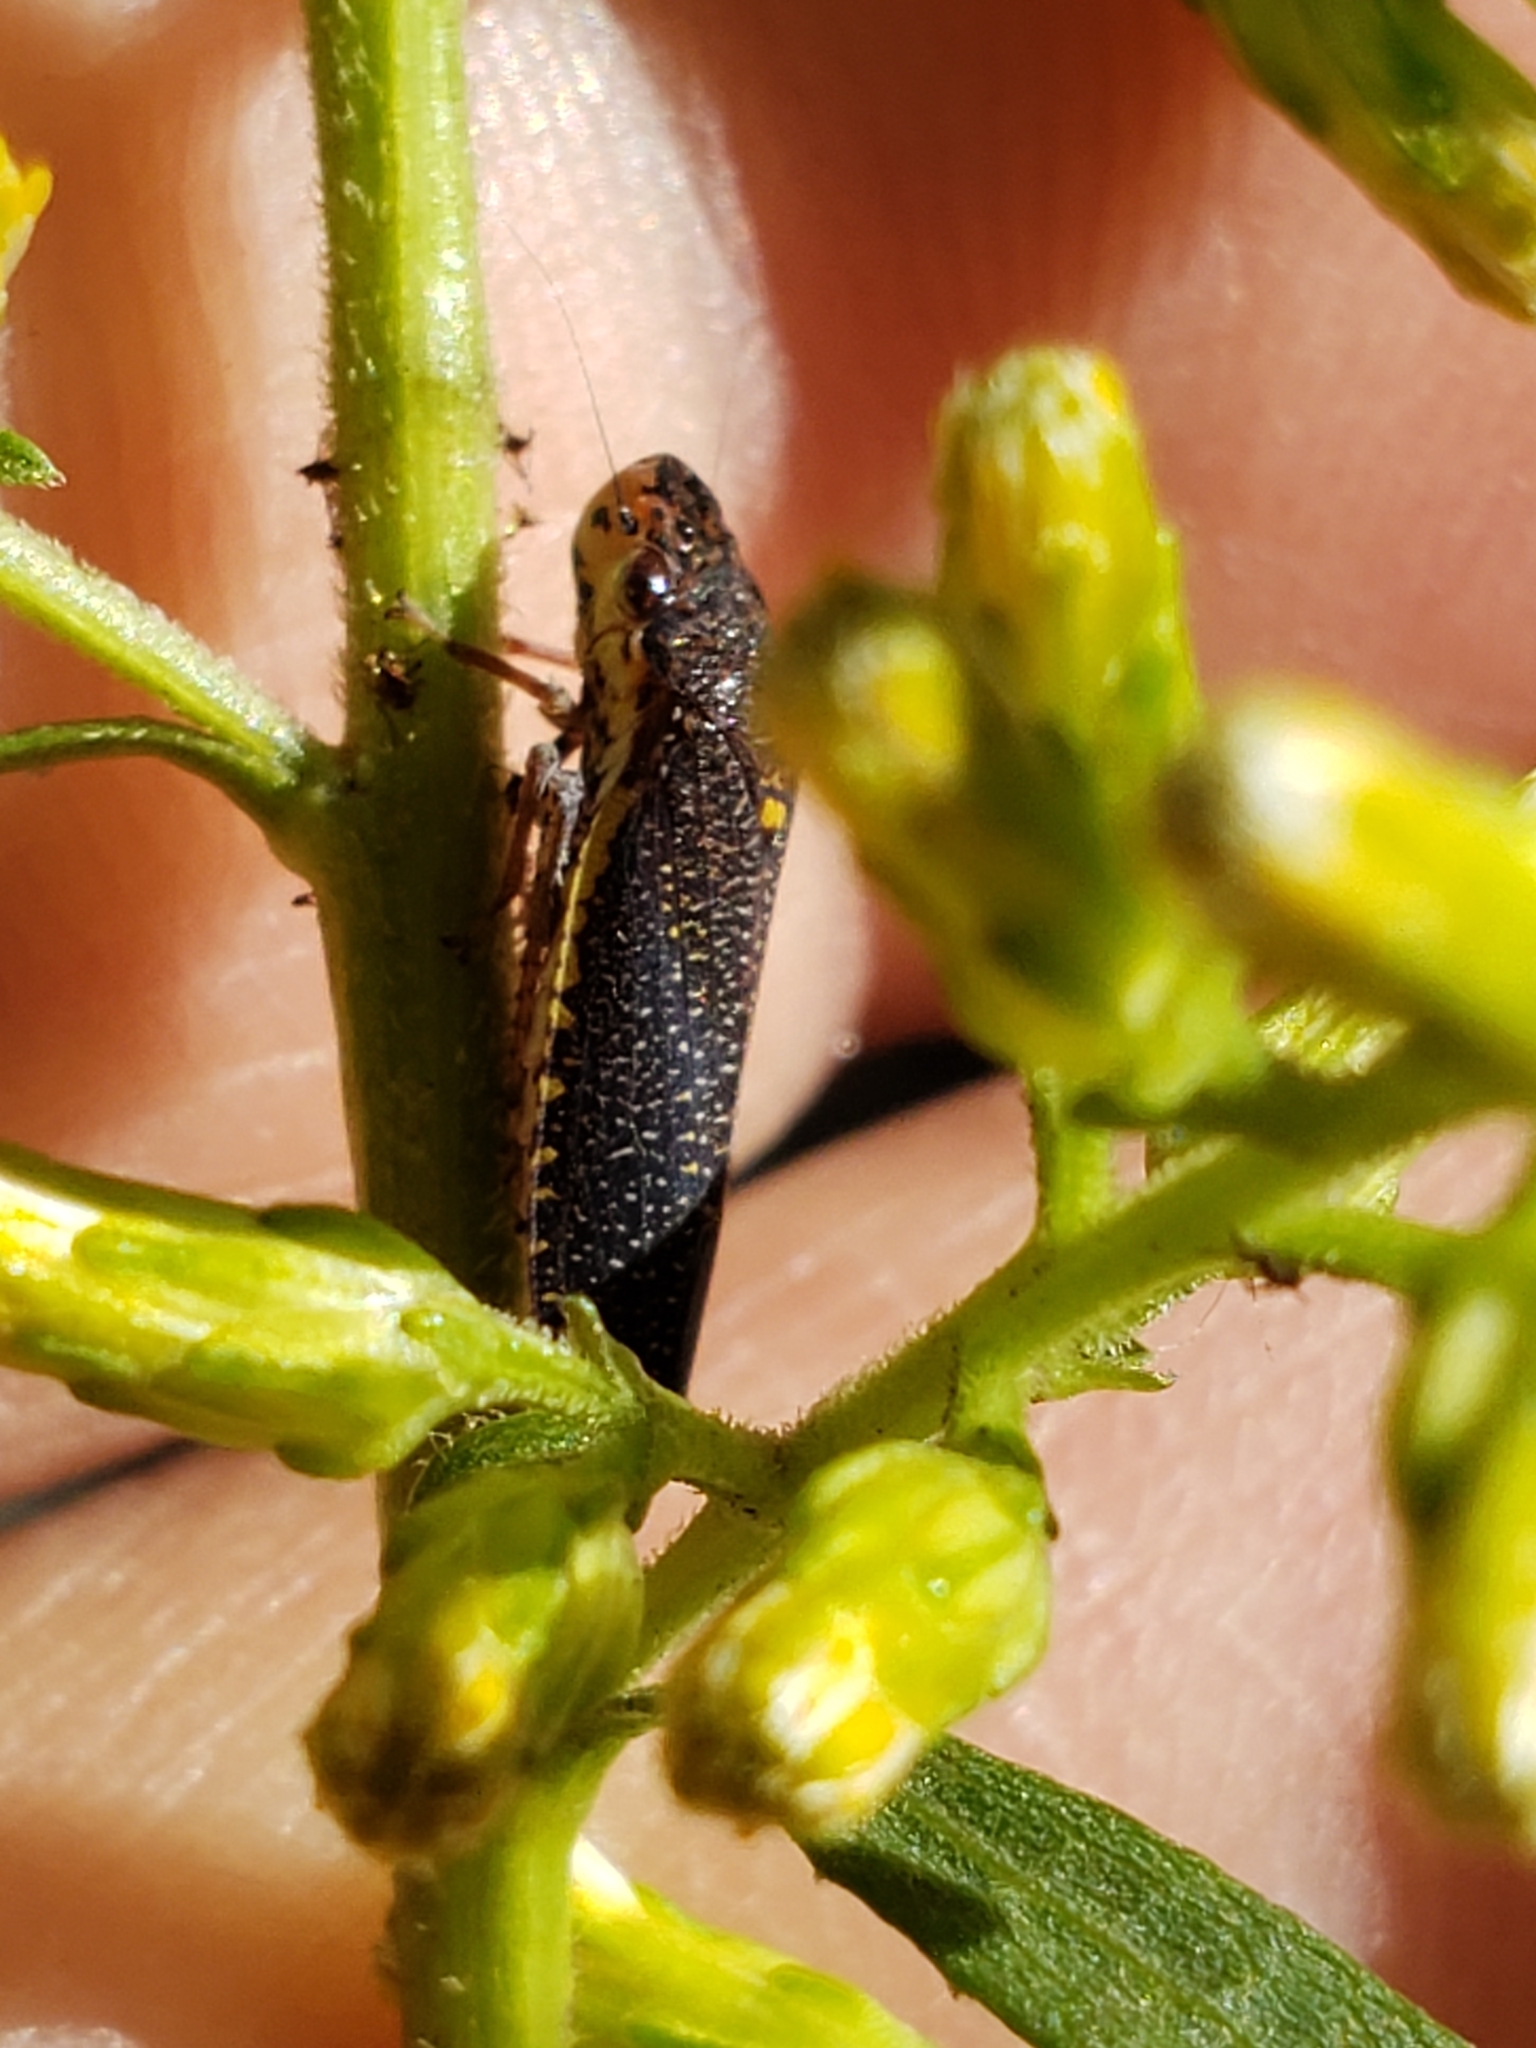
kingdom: Animalia
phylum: Arthropoda
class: Insecta
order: Hemiptera
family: Cicadellidae
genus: Paraulacizes
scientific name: Paraulacizes irrorata
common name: Speckled sharpshooter
